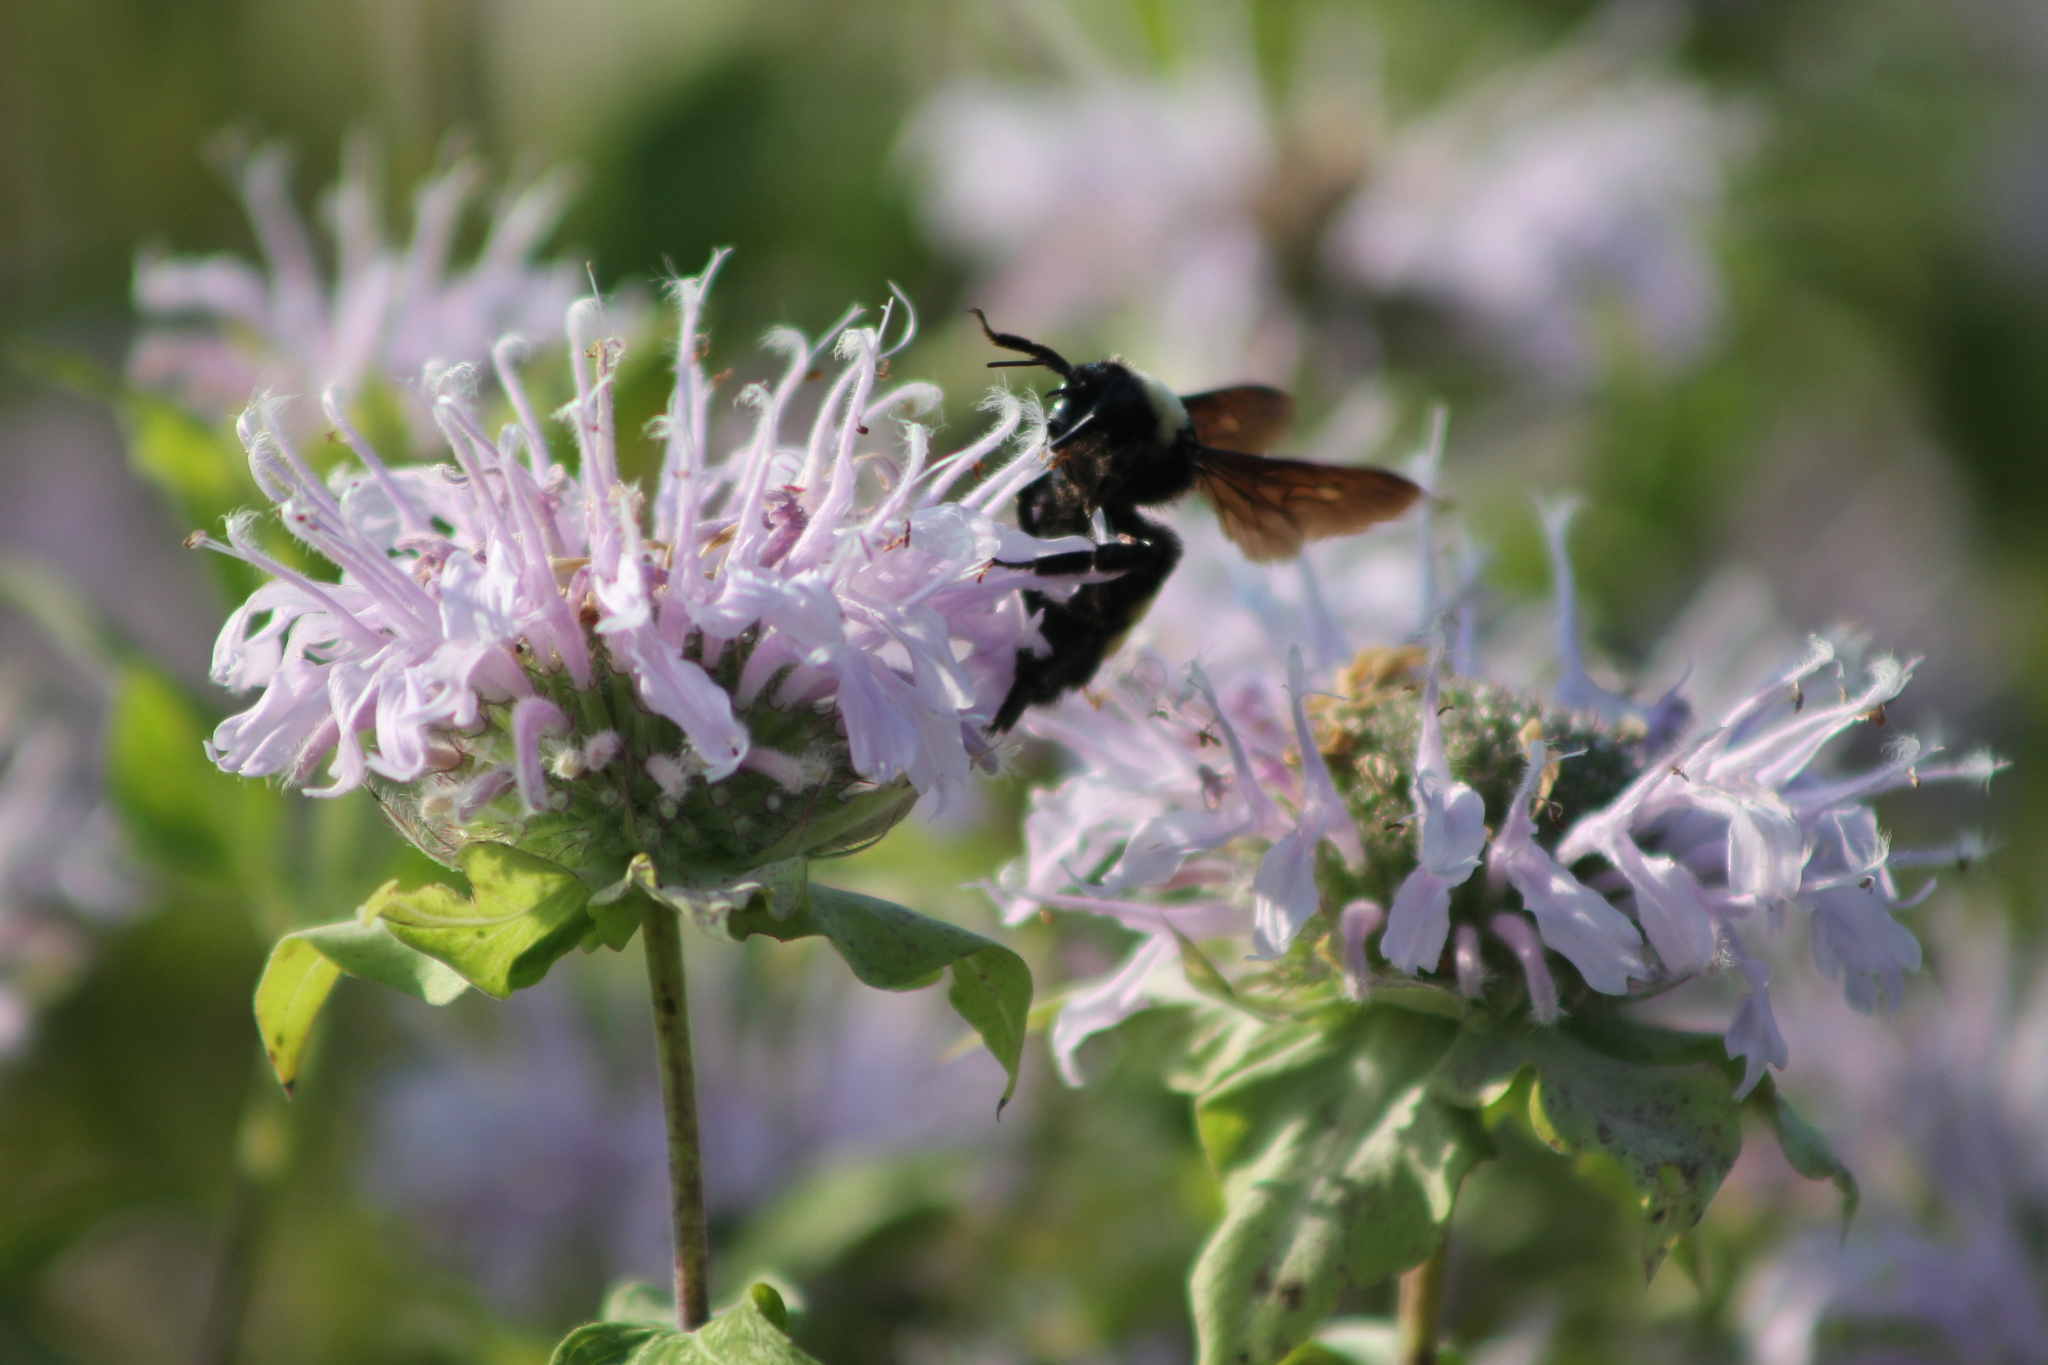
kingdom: Animalia
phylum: Arthropoda
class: Insecta
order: Hymenoptera
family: Apidae
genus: Bombus
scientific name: Bombus auricomus
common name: Black and gold bumble bee
